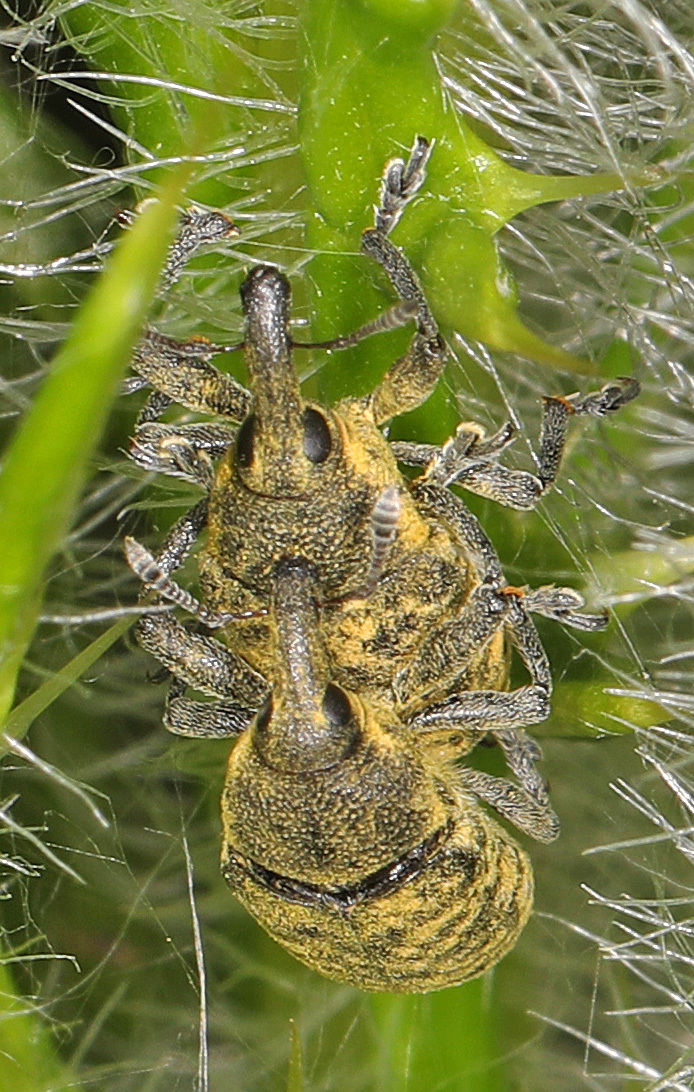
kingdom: Animalia
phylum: Arthropoda
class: Insecta
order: Coleoptera
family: Curculionidae
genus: Larinus
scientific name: Larinus carlinae
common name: Weevil
